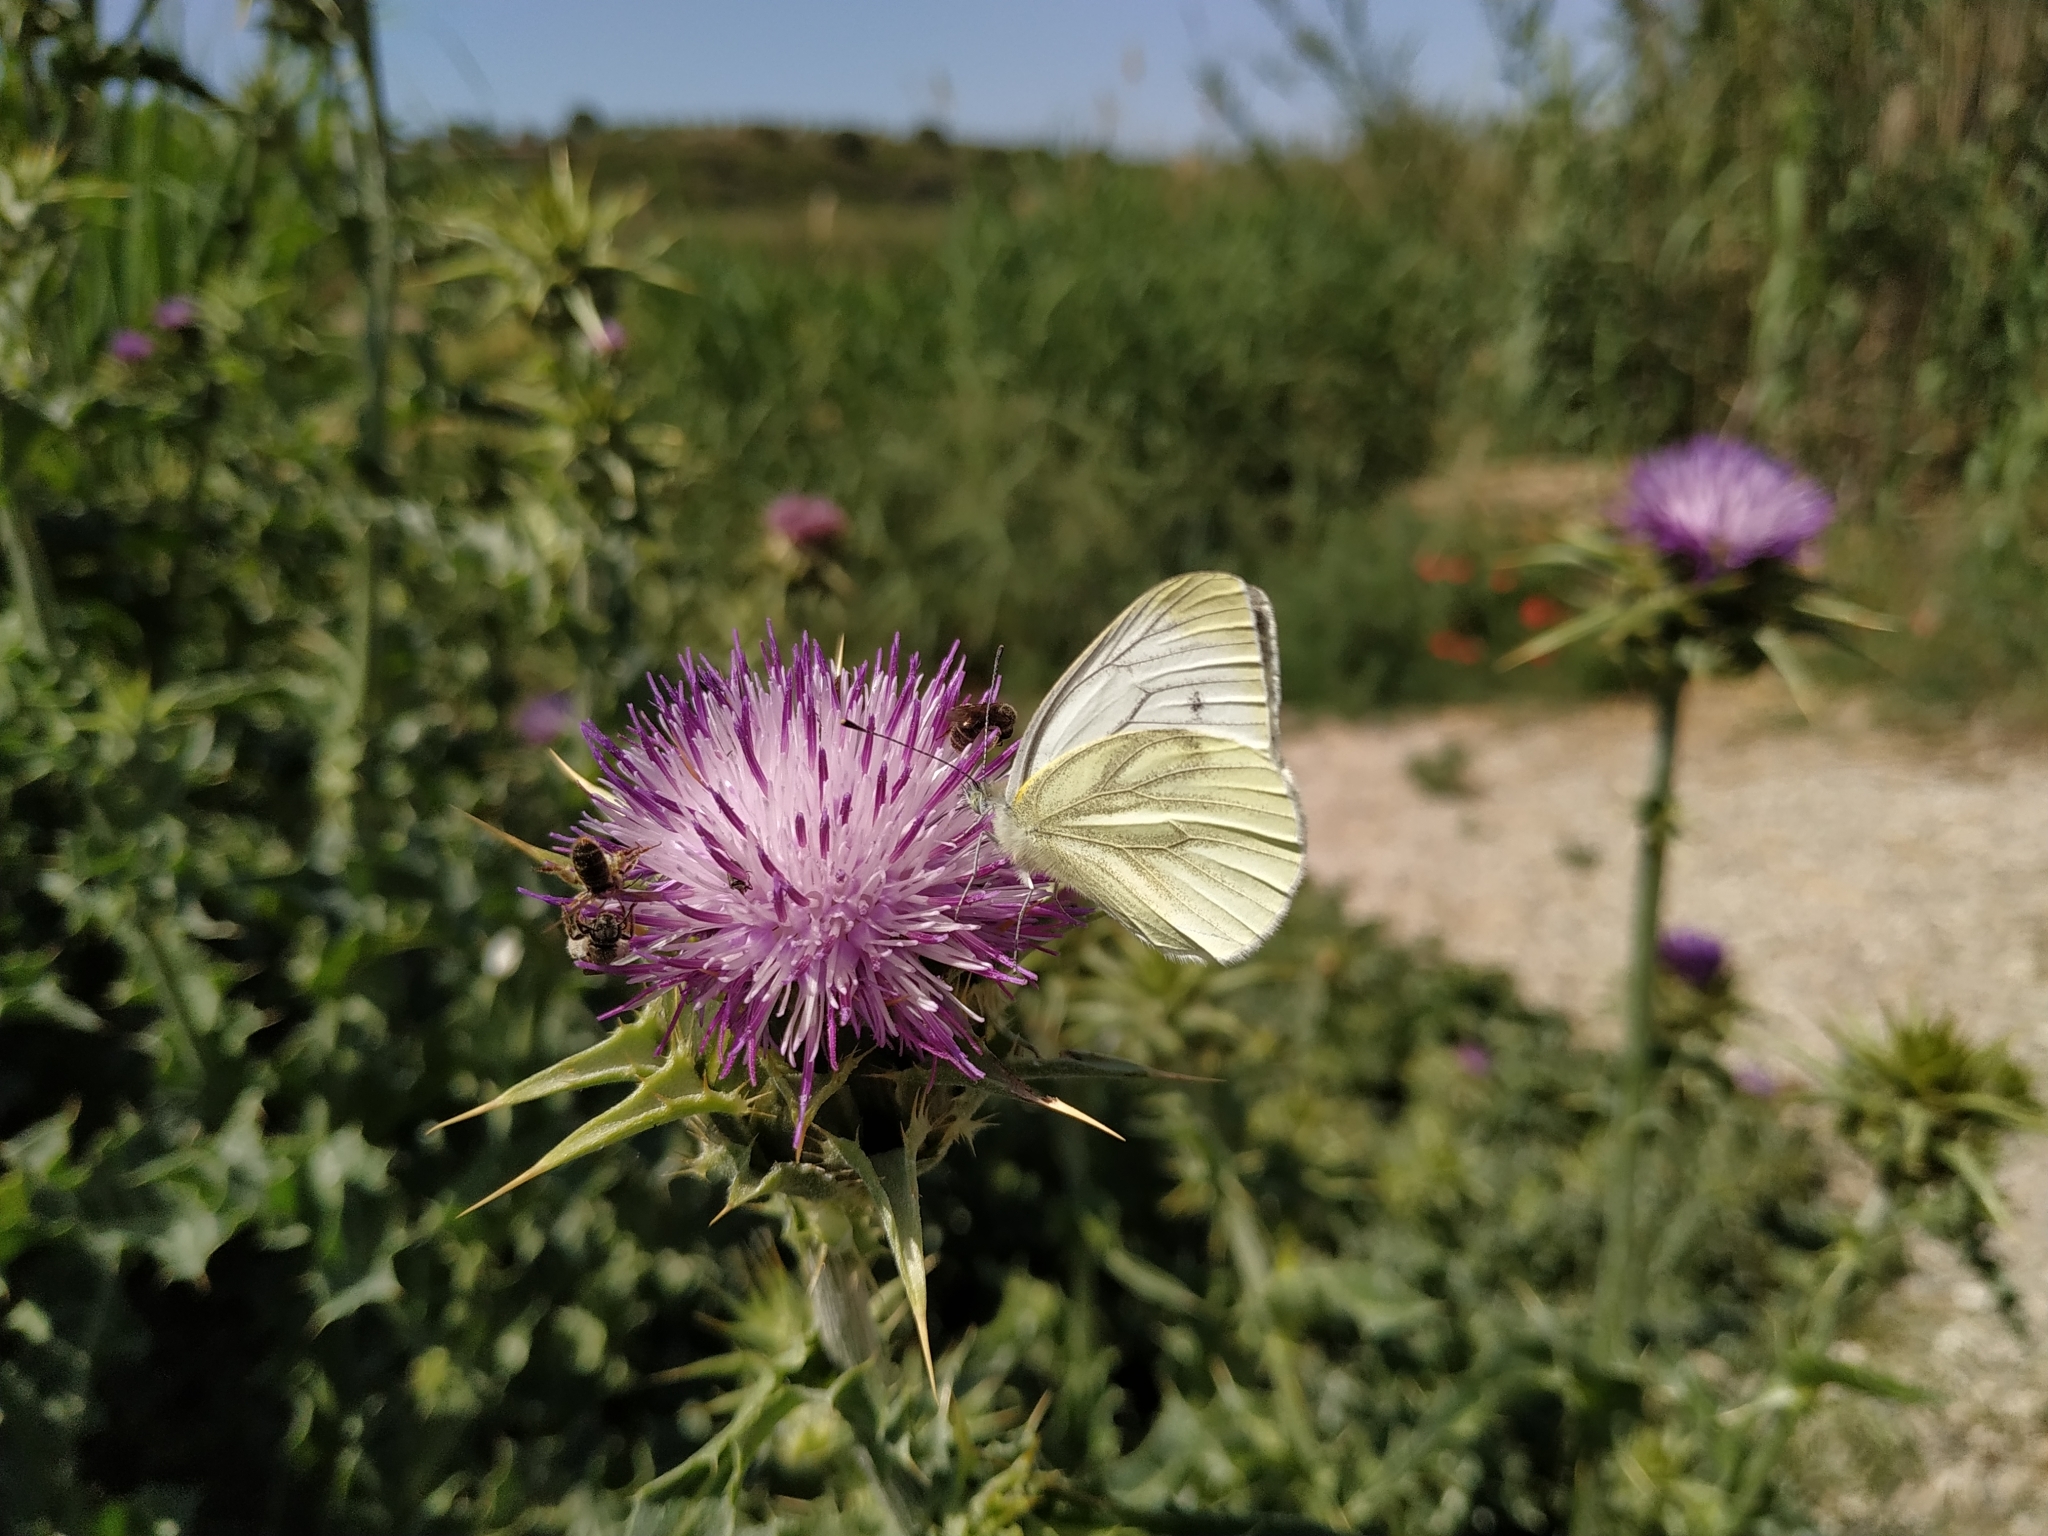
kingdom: Animalia
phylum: Arthropoda
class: Insecta
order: Lepidoptera
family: Pieridae
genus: Pieris
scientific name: Pieris napi
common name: Green-veined white
